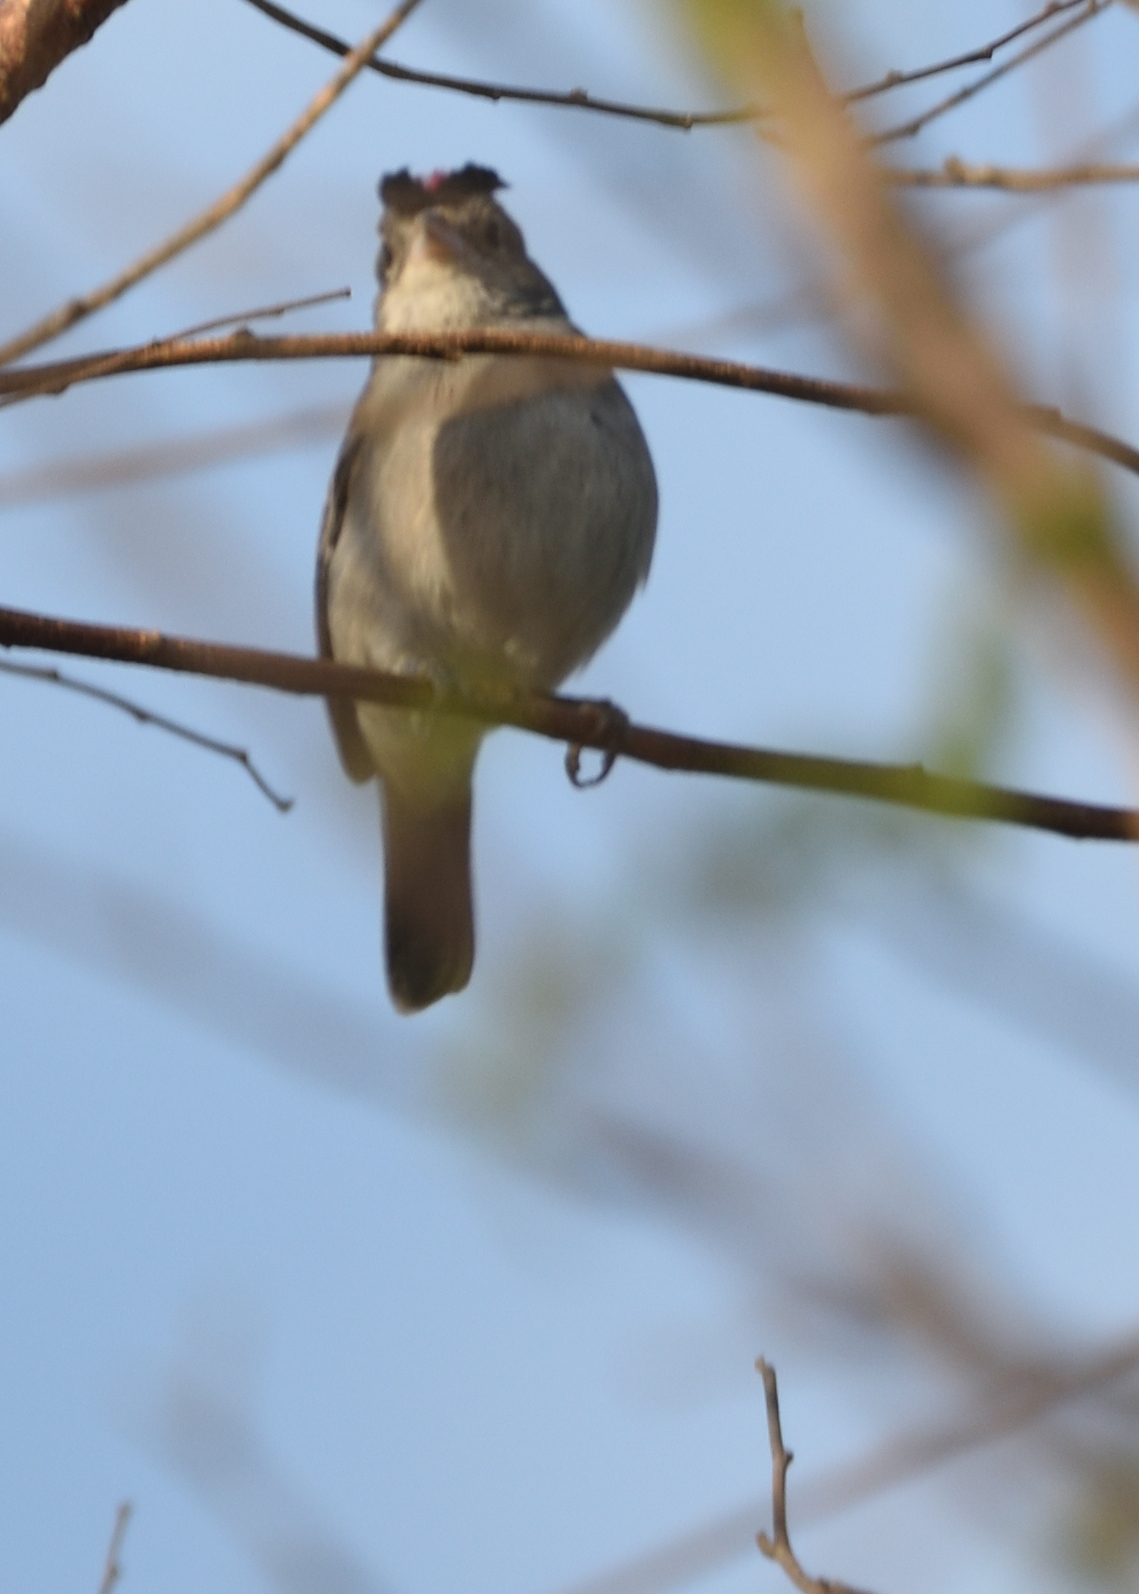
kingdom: Animalia
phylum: Chordata
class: Aves
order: Passeriformes
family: Thraupidae
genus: Coryphospingus
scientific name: Coryphospingus pileatus
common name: Grey pileated finch
